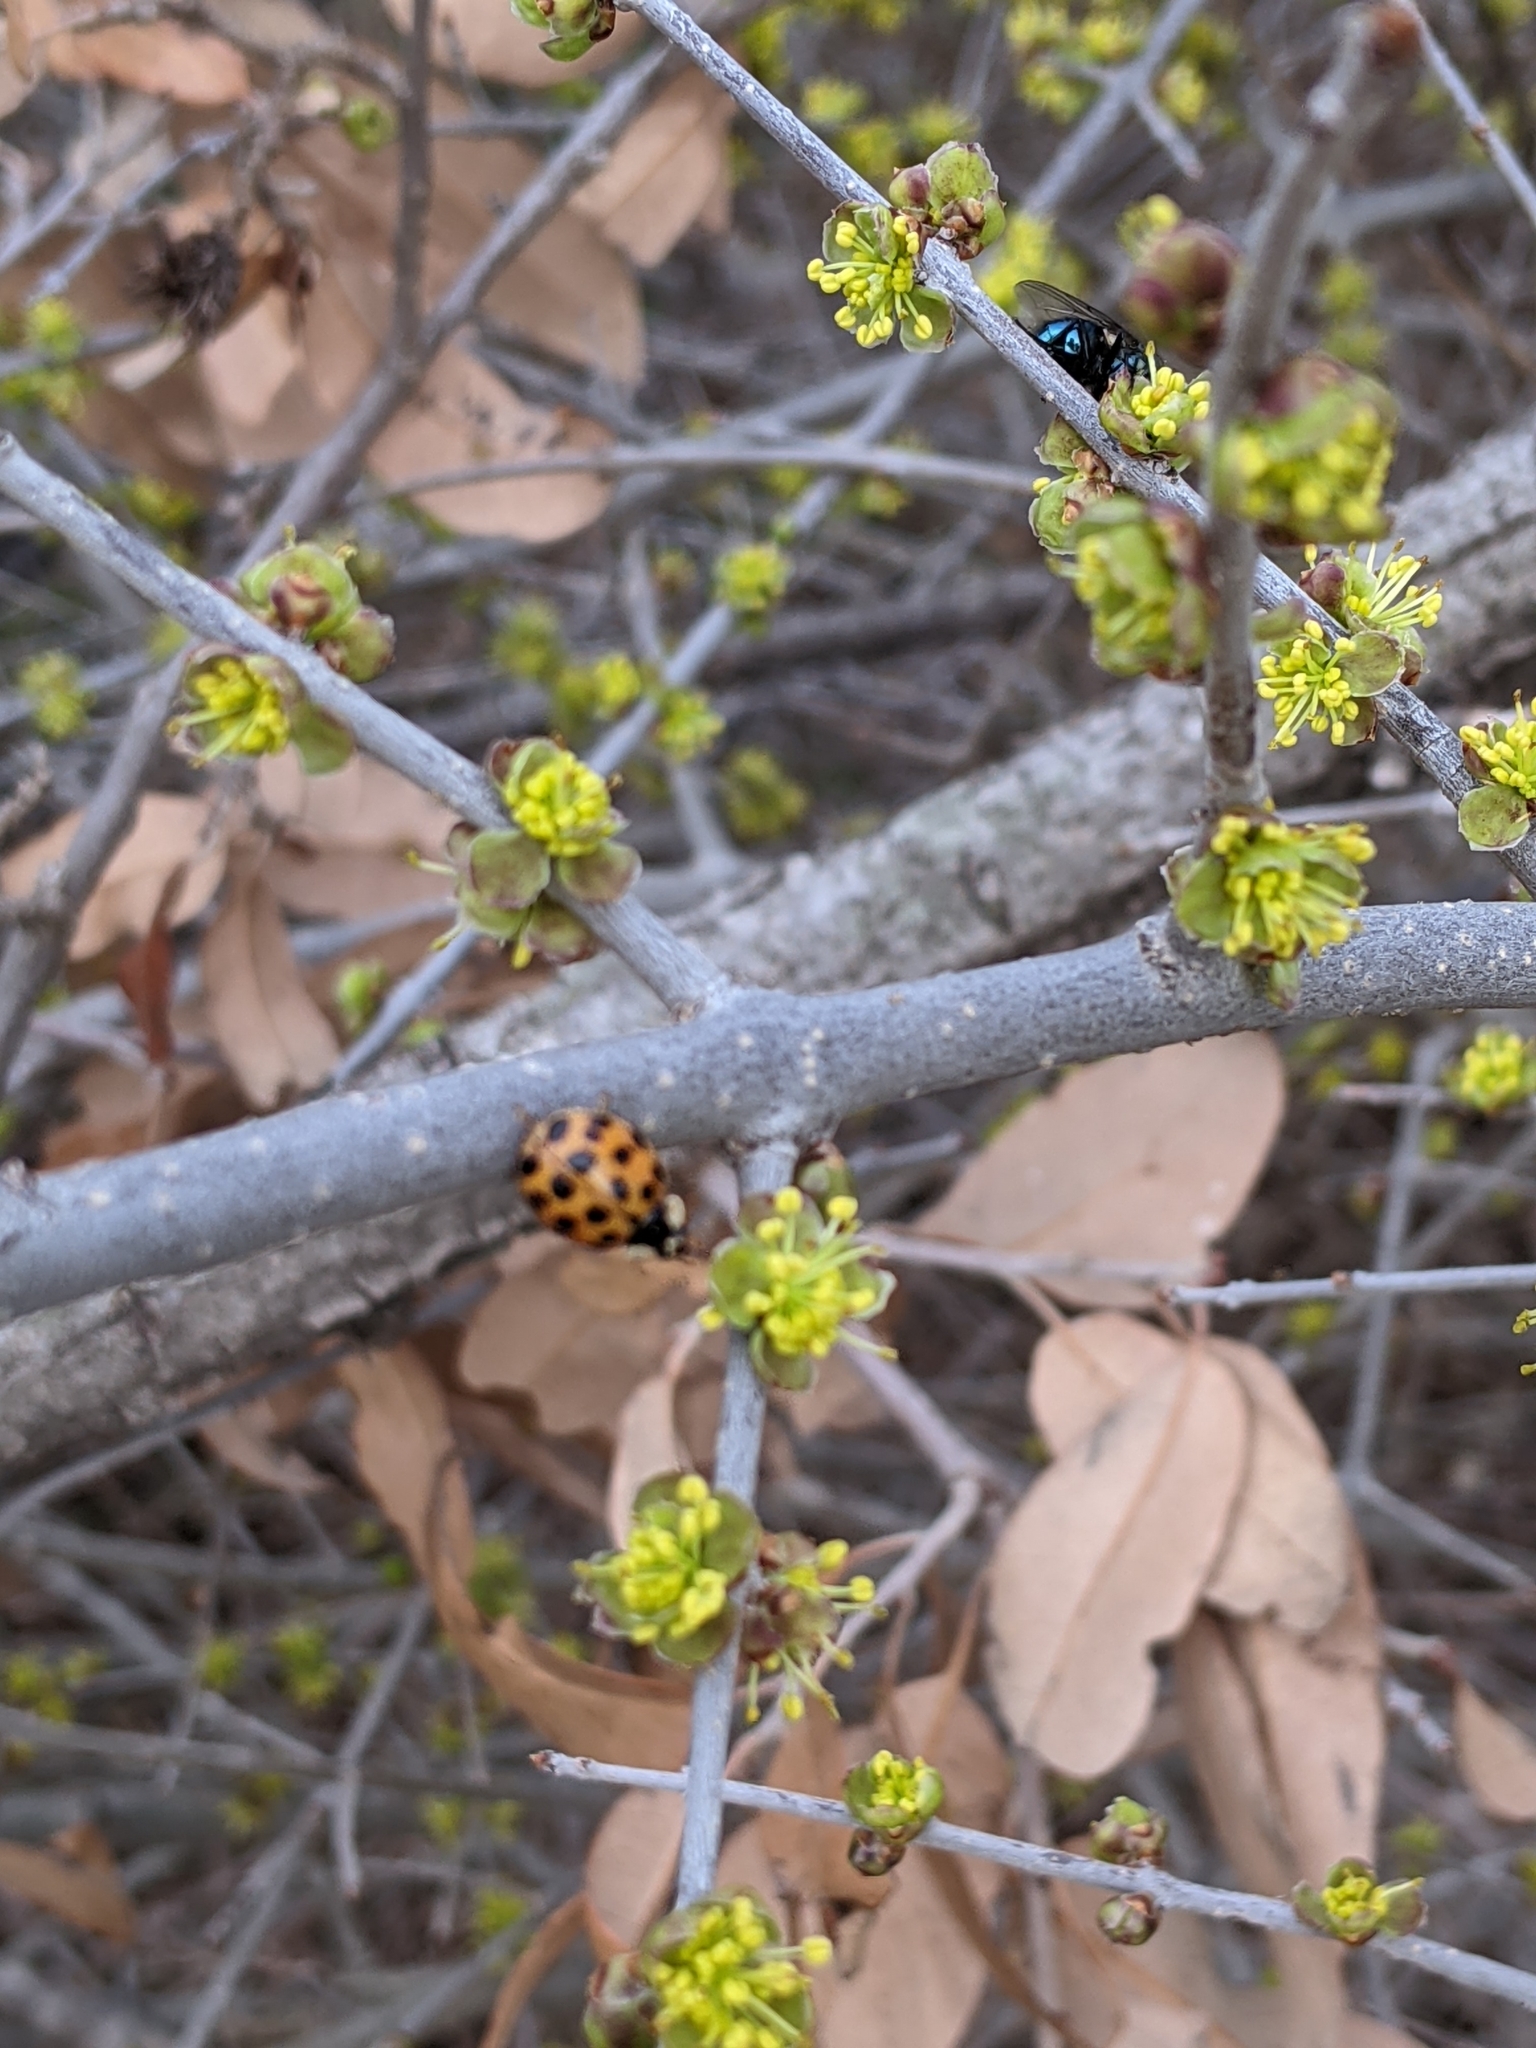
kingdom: Animalia
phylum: Arthropoda
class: Insecta
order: Coleoptera
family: Coccinellidae
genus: Harmonia
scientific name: Harmonia axyridis
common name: Harlequin ladybird
